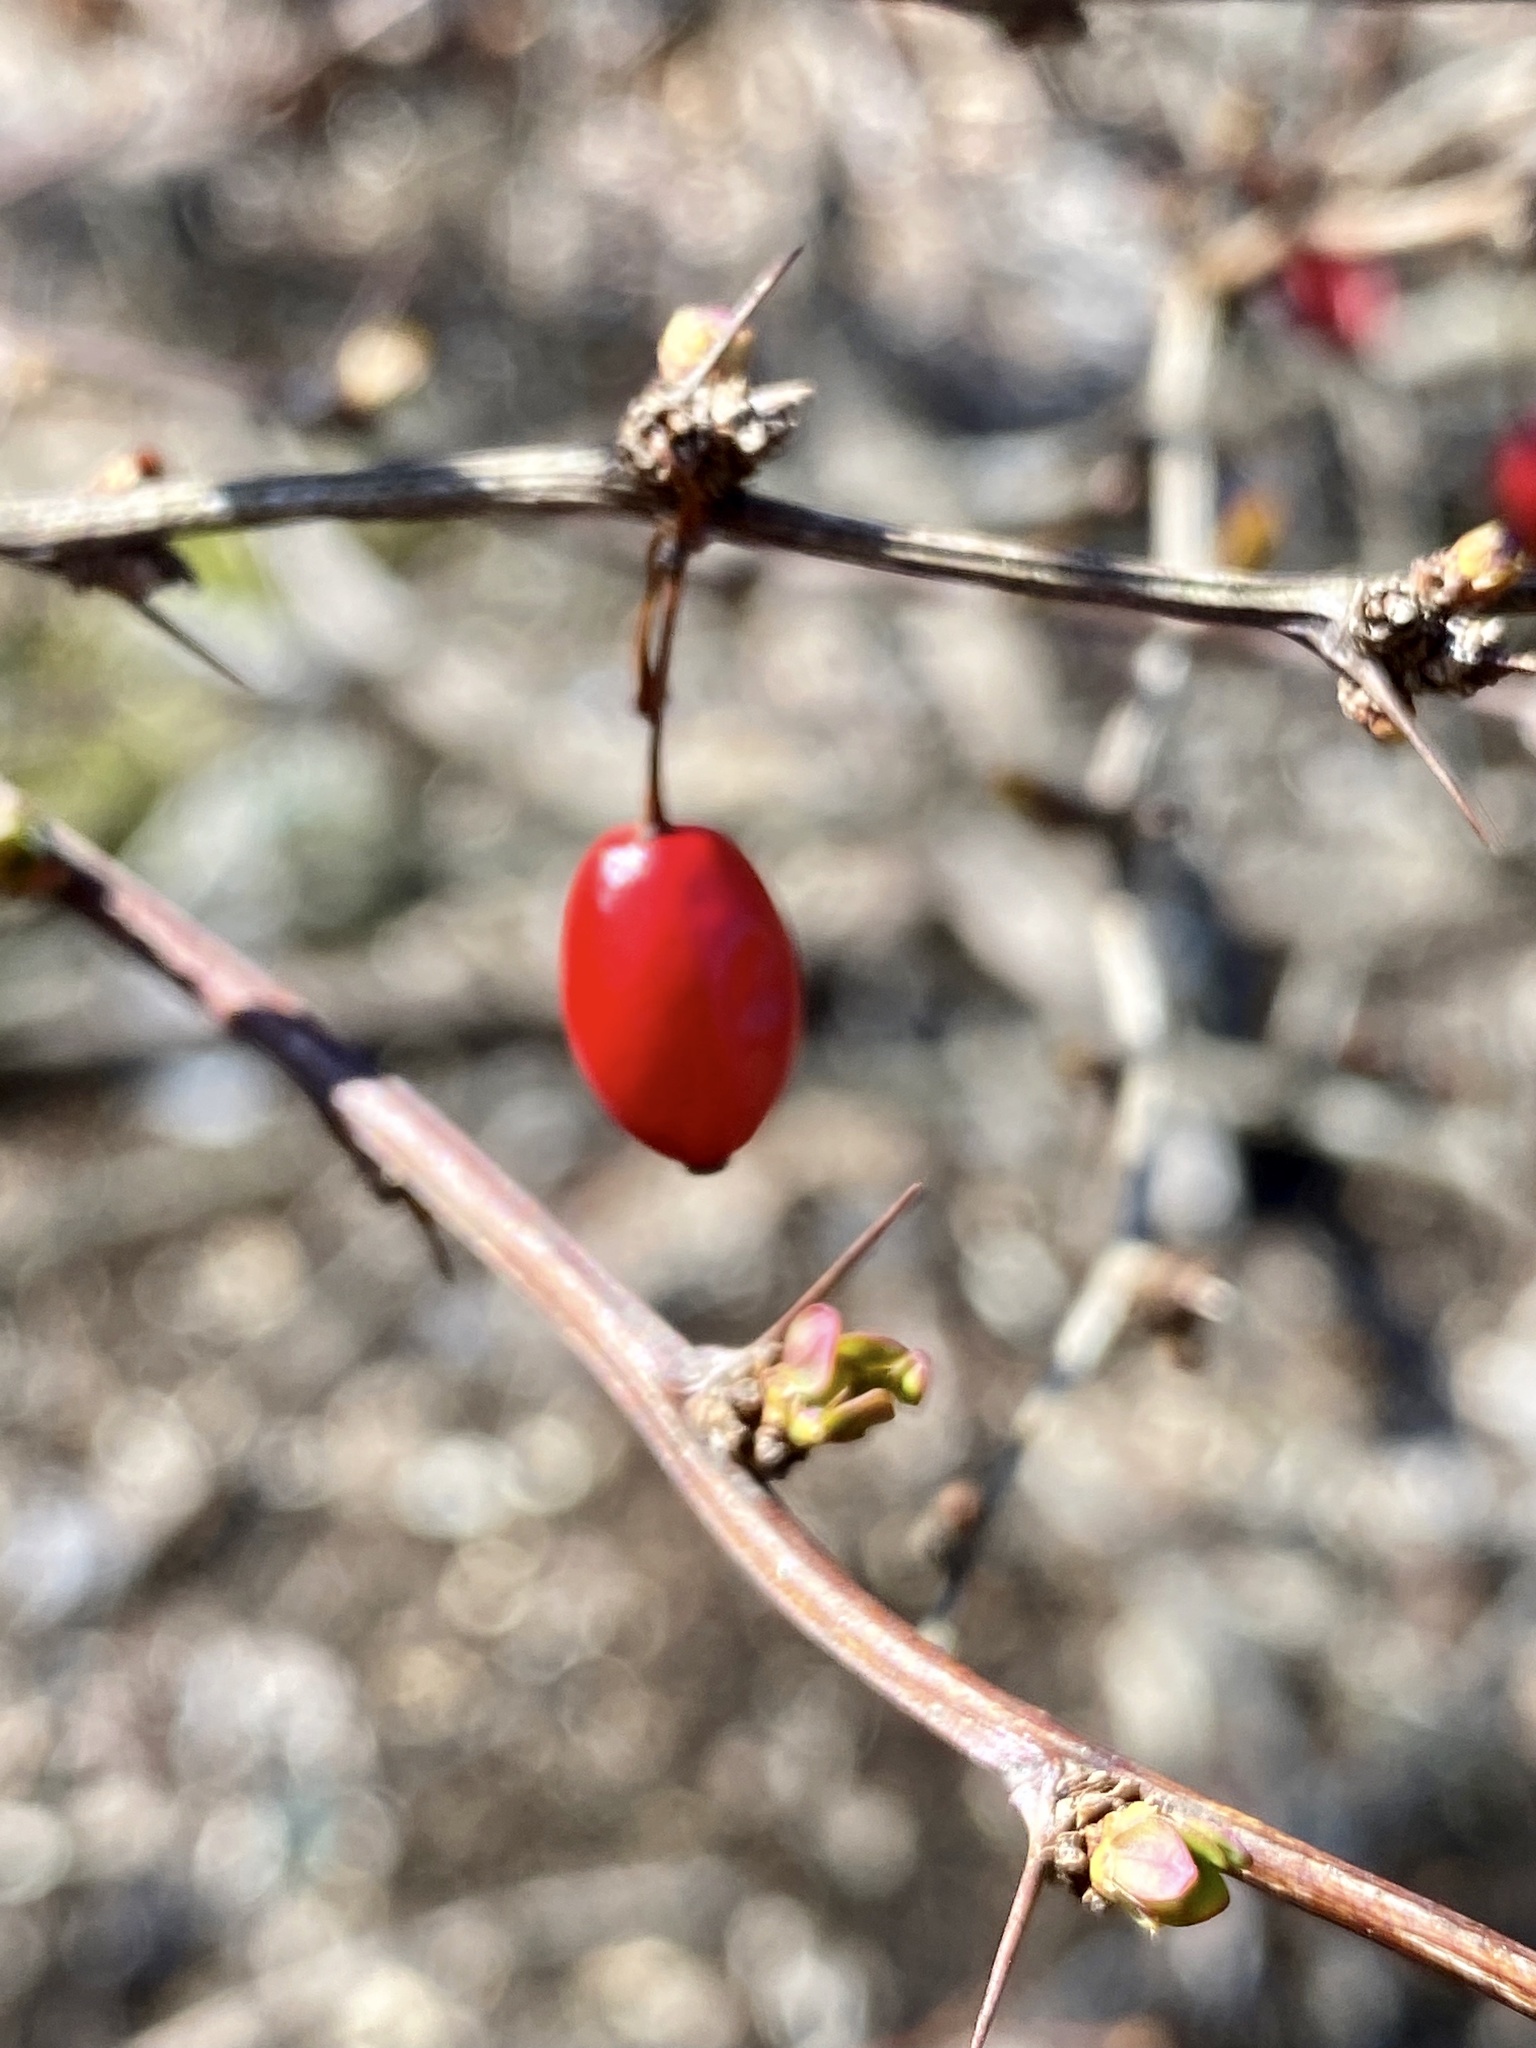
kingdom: Plantae
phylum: Tracheophyta
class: Magnoliopsida
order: Ranunculales
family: Berberidaceae
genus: Berberis
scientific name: Berberis thunbergii
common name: Japanese barberry
